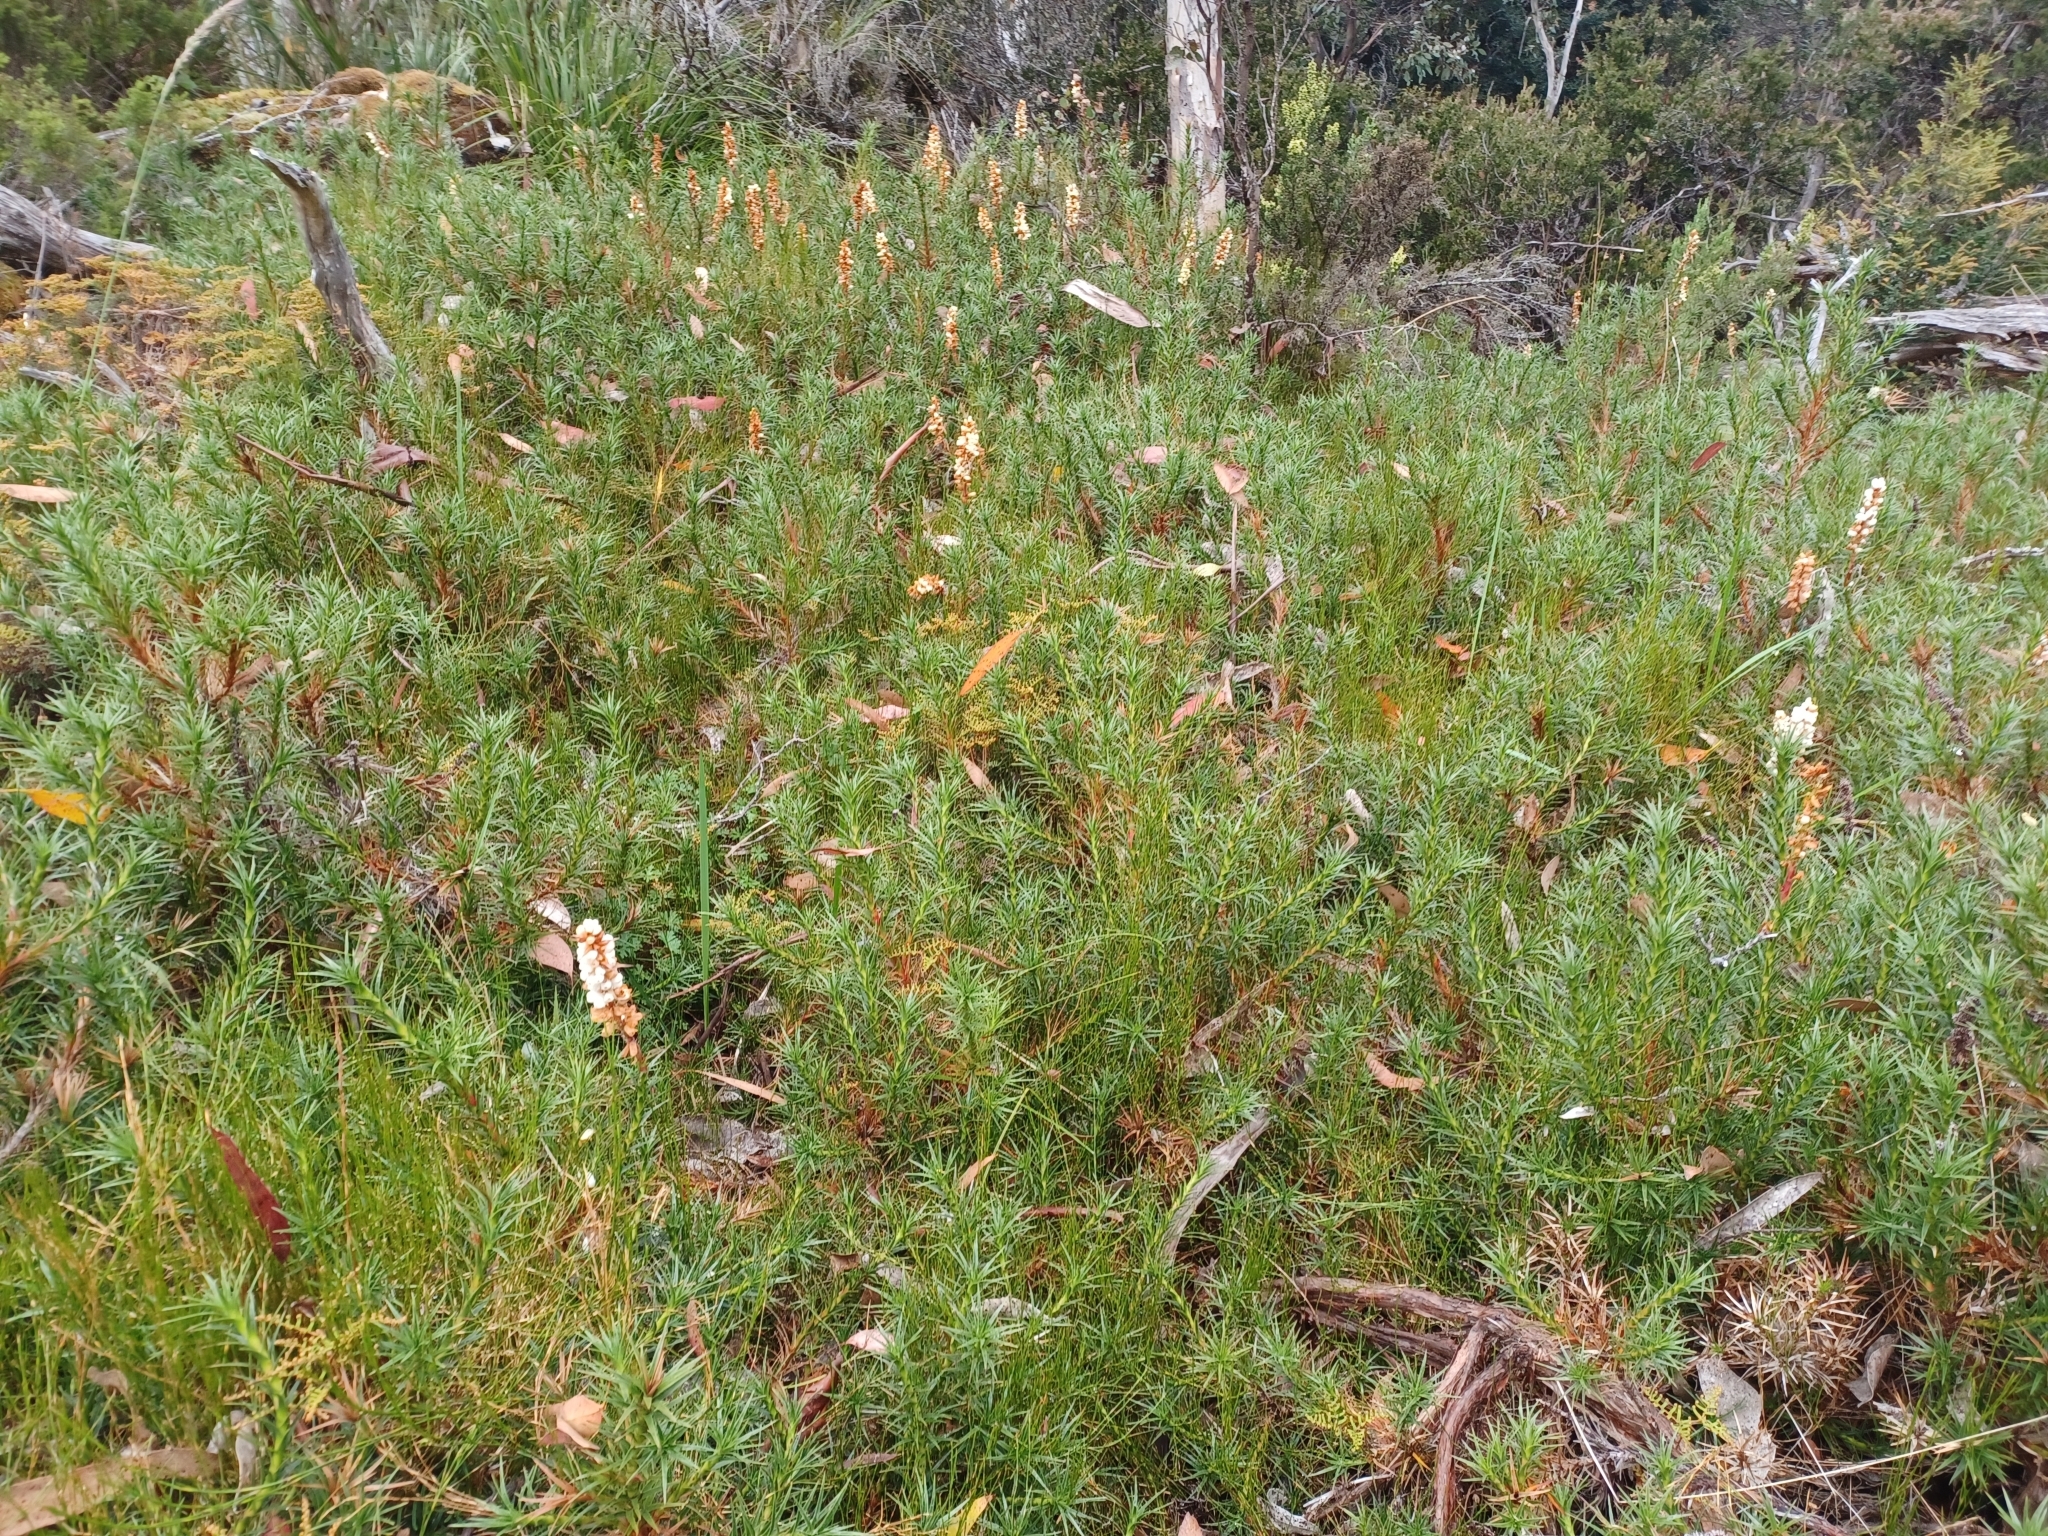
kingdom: Plantae
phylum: Tracheophyta
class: Magnoliopsida
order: Ericales
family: Ericaceae
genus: Dracophyllum
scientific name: Dracophyllum persistentifolium
